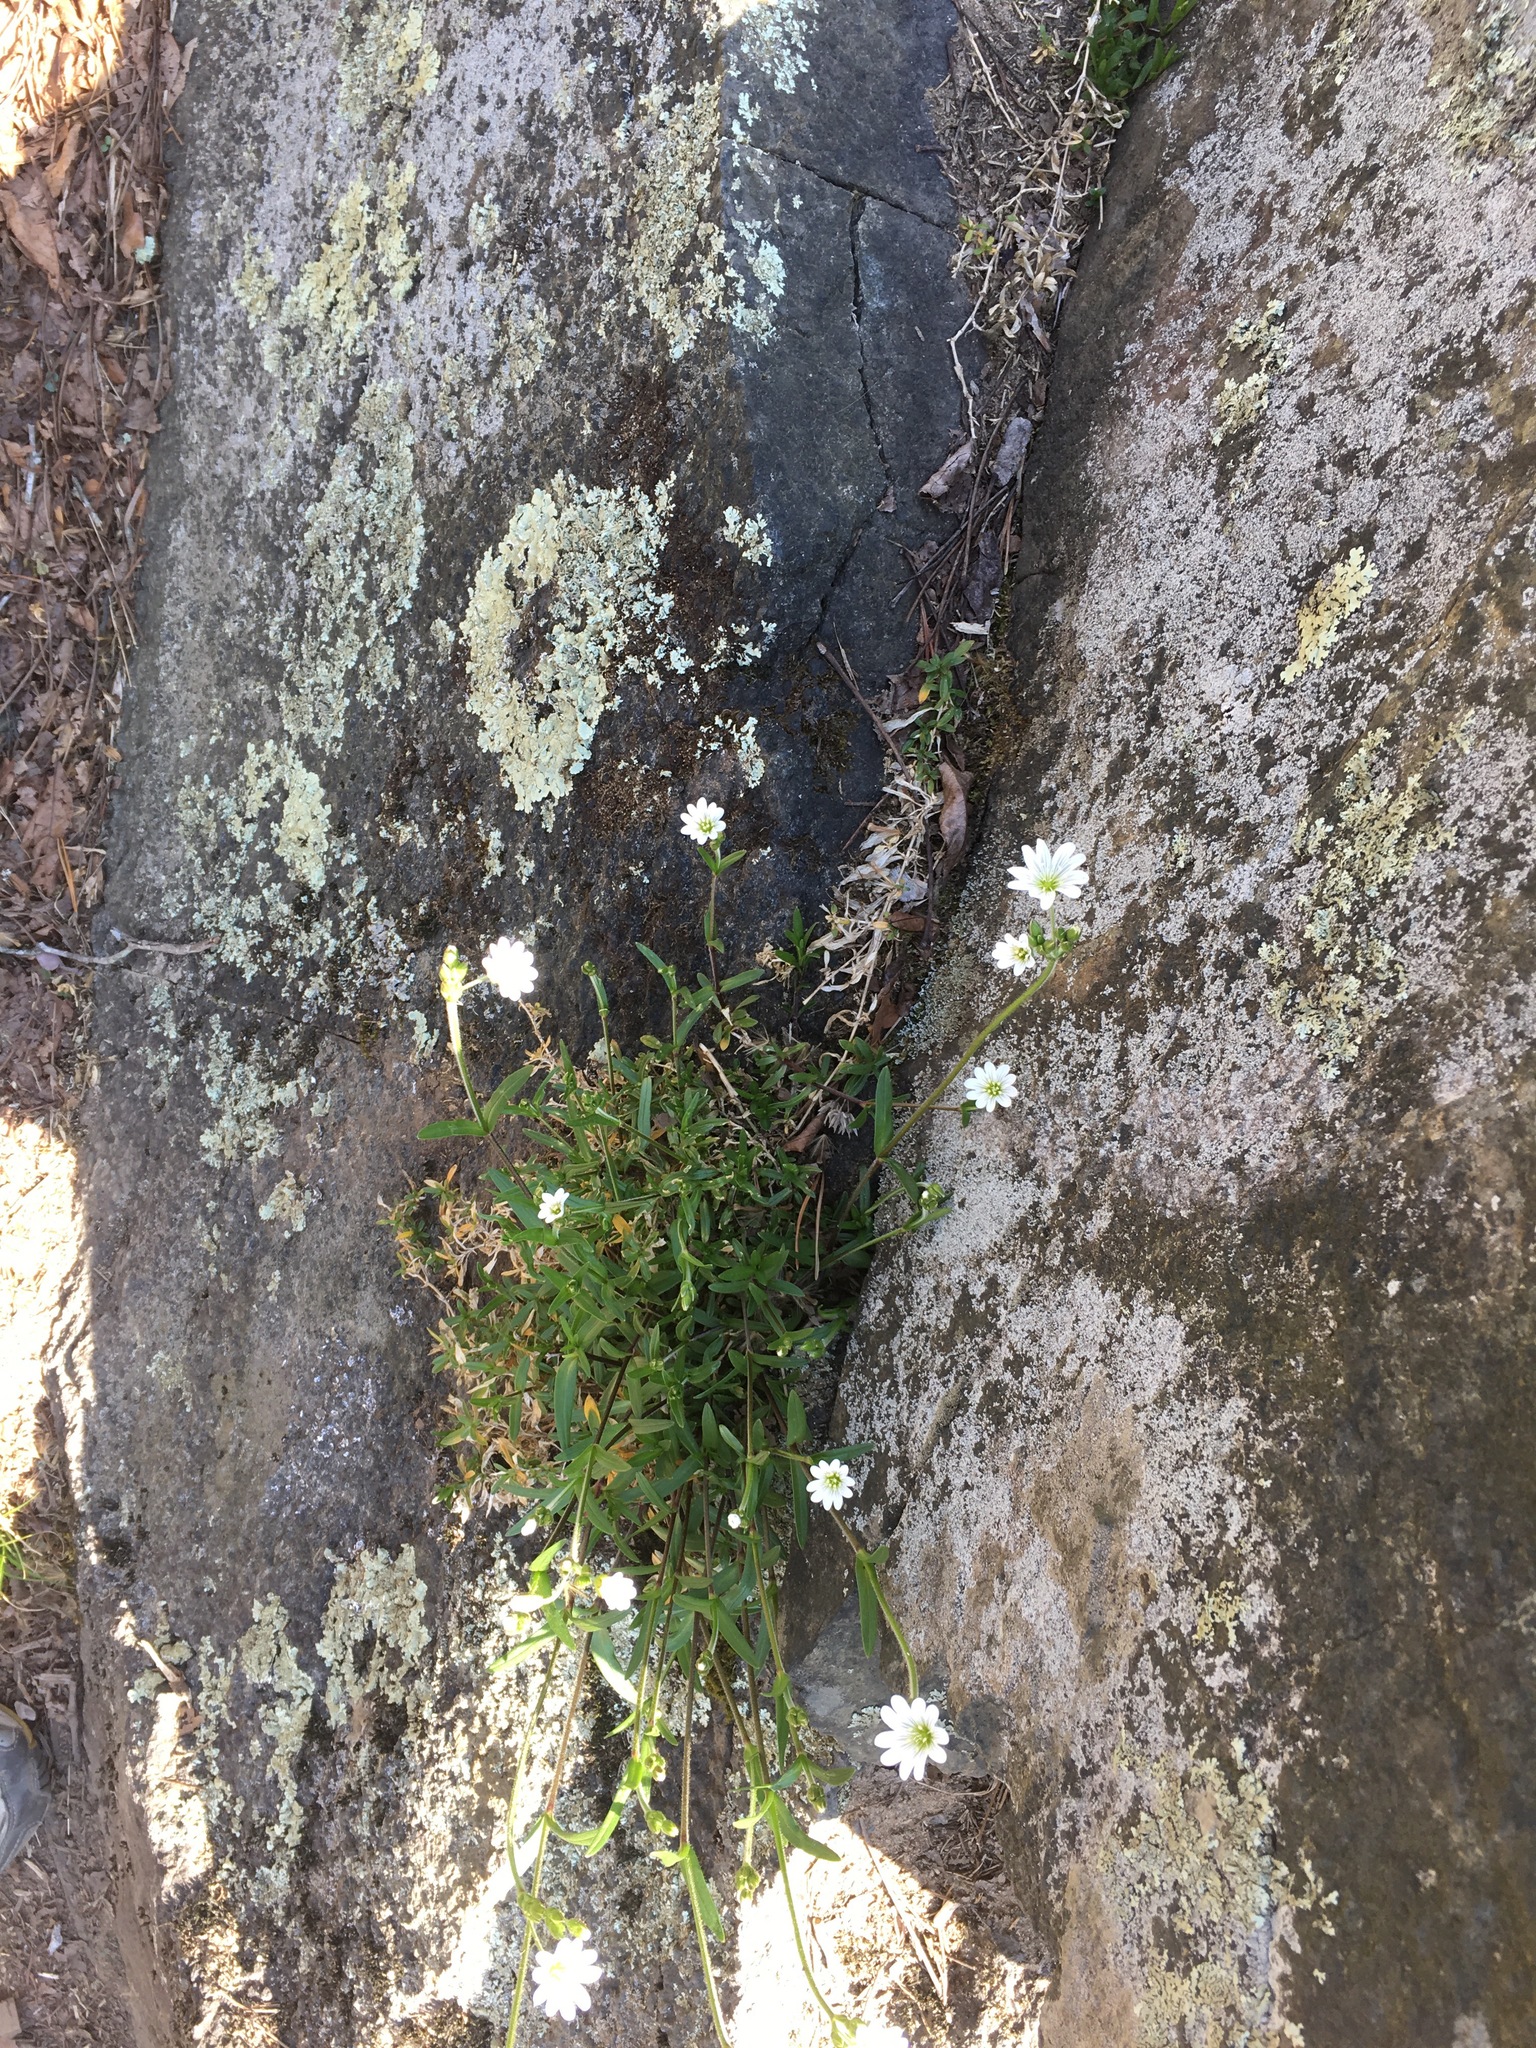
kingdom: Plantae
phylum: Tracheophyta
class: Magnoliopsida
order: Caryophyllales
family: Caryophyllaceae
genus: Cerastium
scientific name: Cerastium arvense
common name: Field mouse-ear
